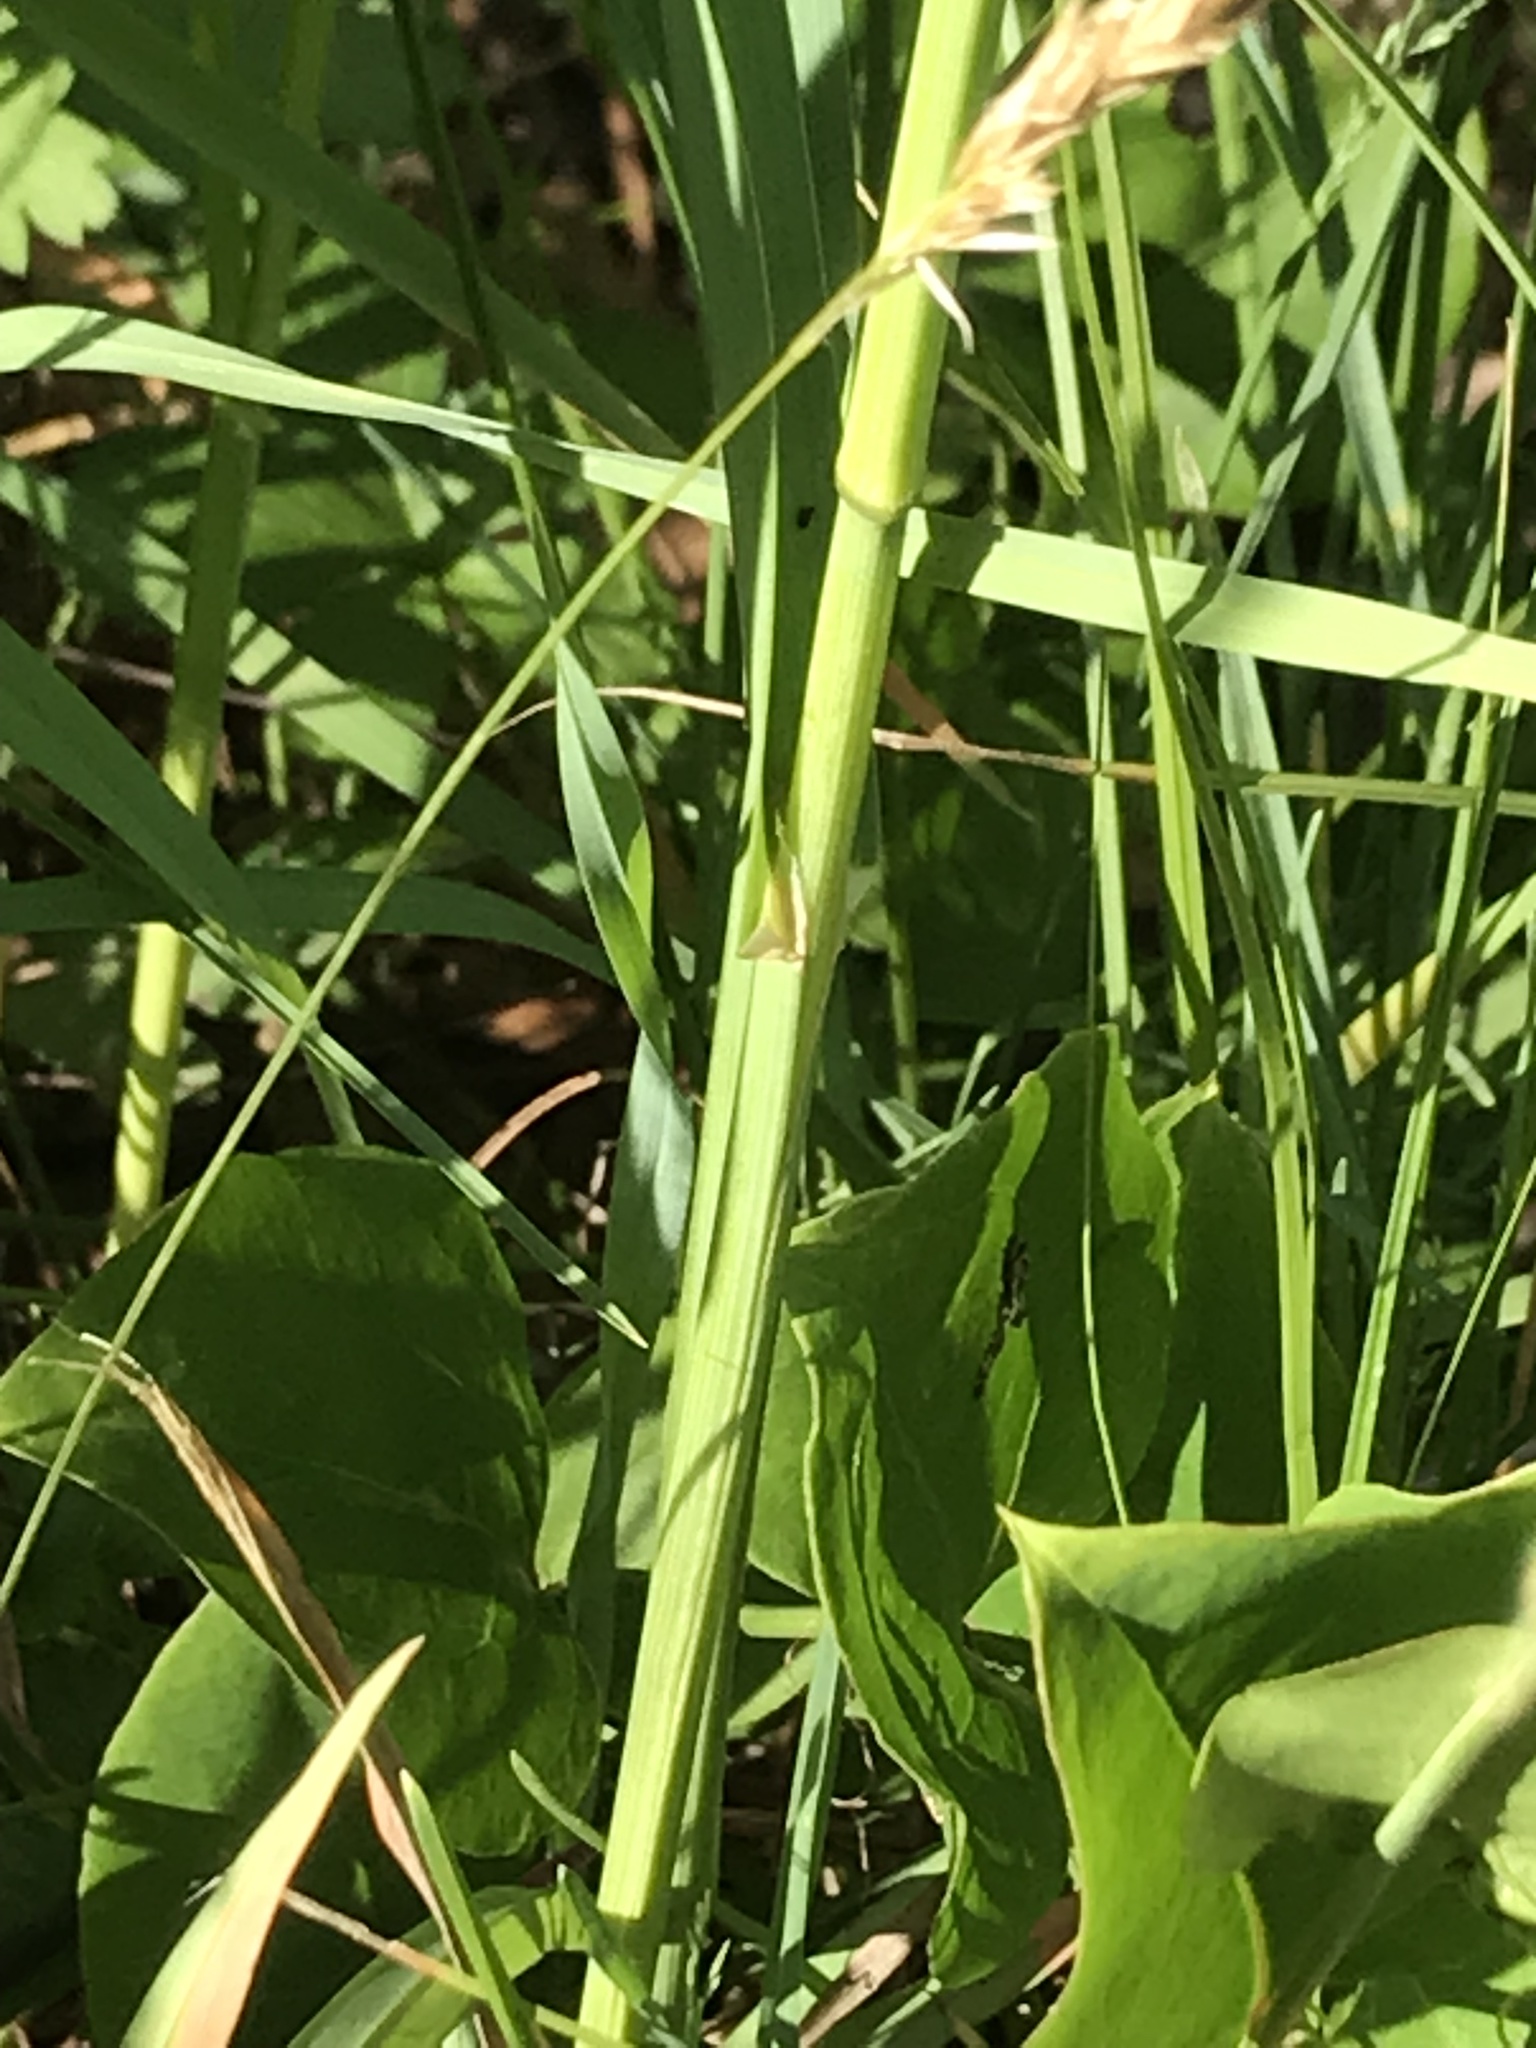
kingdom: Plantae
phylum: Tracheophyta
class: Liliopsida
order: Poales
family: Poaceae
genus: Dactylis
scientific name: Dactylis glomerata
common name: Orchardgrass
